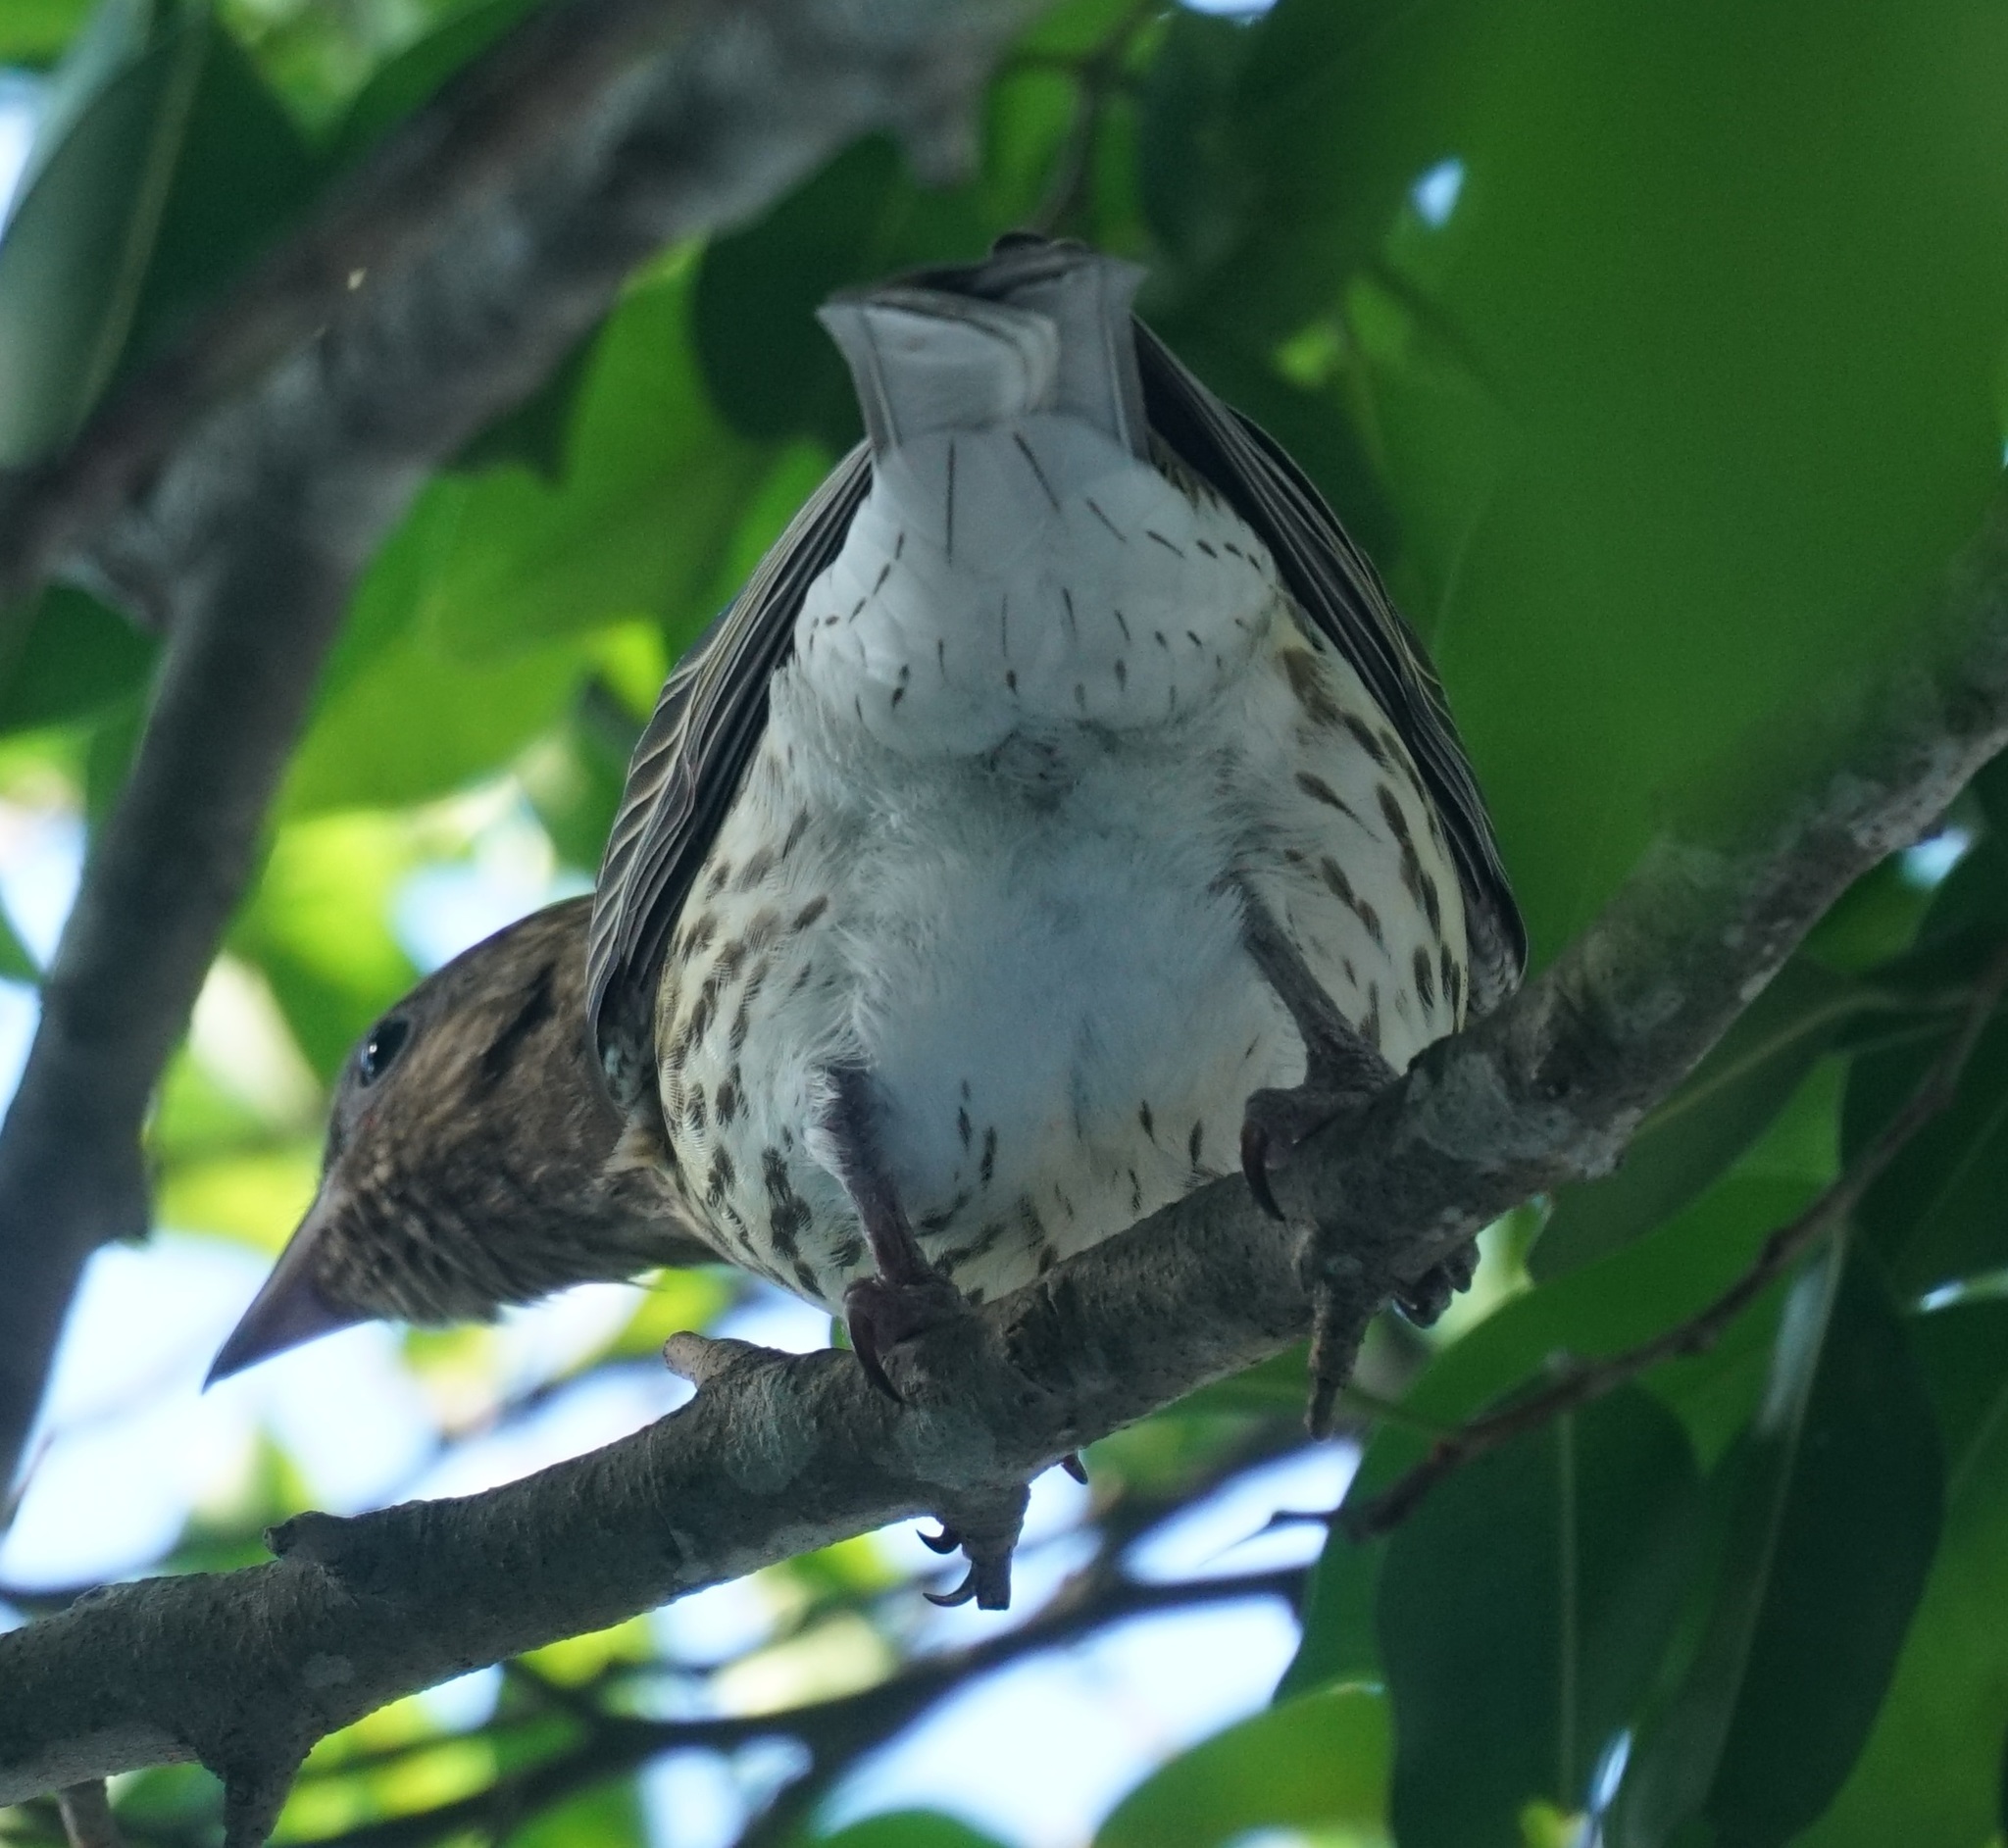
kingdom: Animalia
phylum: Chordata
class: Aves
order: Passeriformes
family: Oriolidae
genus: Sphecotheres
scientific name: Sphecotheres vieilloti
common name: Australasian figbird
